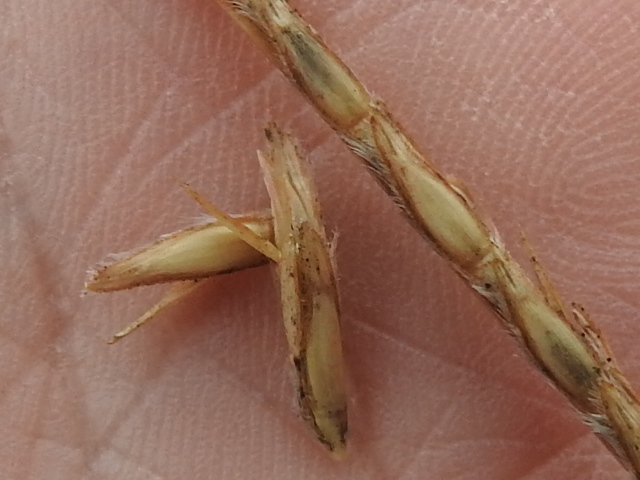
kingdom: Plantae
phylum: Tracheophyta
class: Liliopsida
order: Poales
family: Poaceae
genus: Elionurus
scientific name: Elionurus tripsacoides
